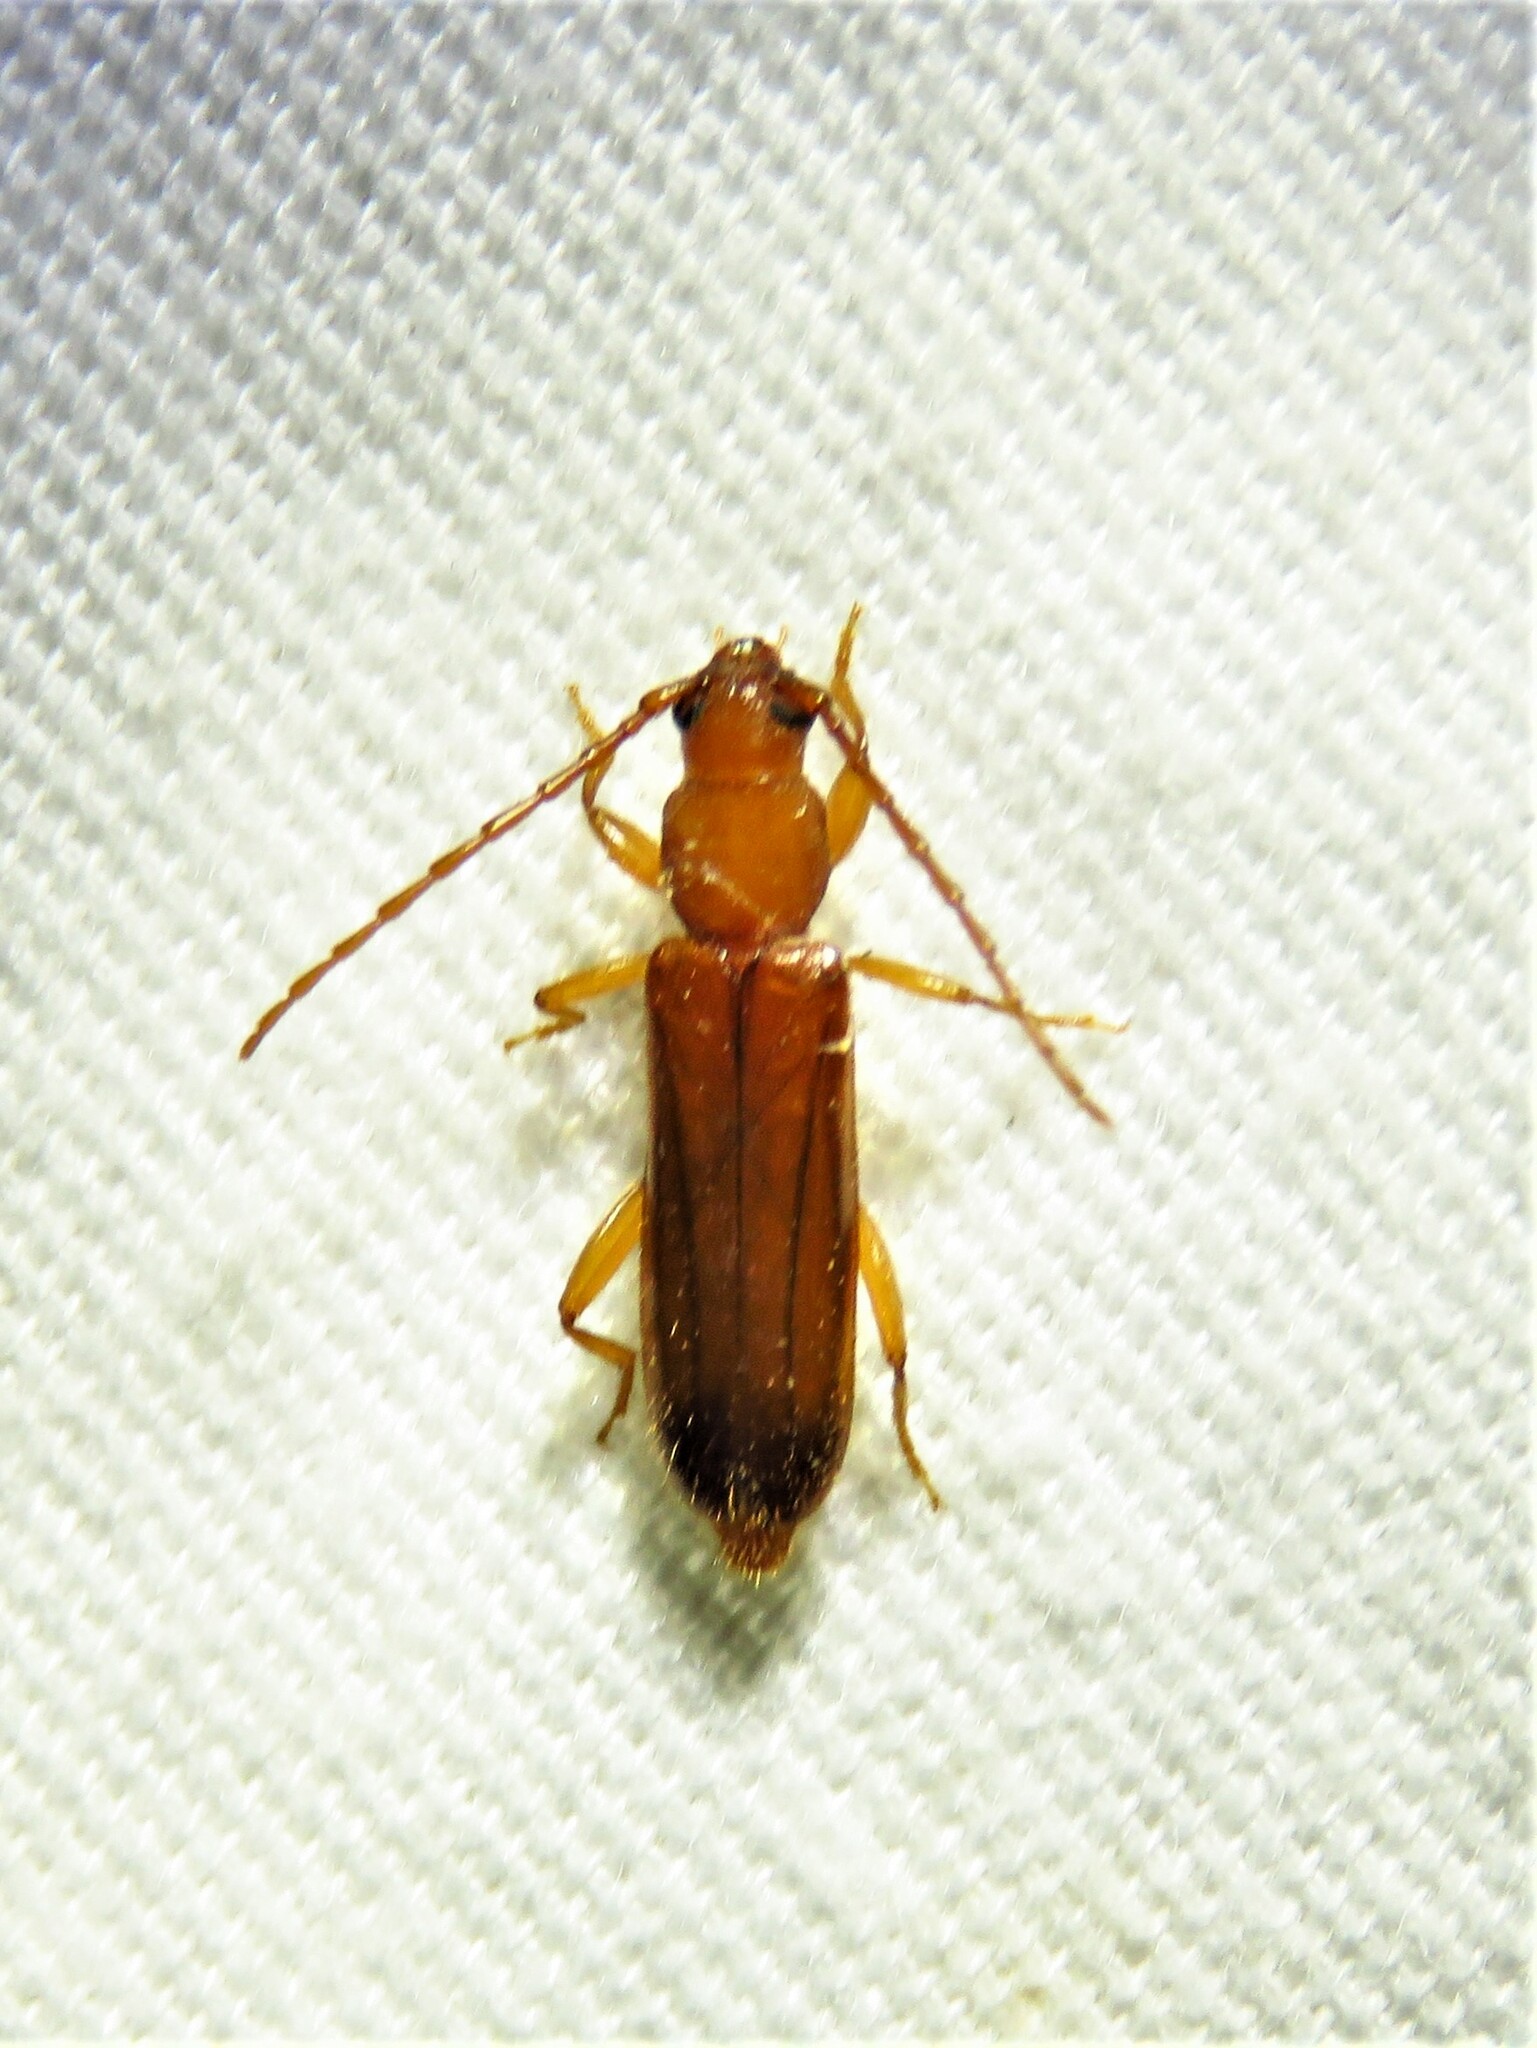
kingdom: Animalia
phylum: Arthropoda
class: Insecta
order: Coleoptera
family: Cerambycidae
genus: Smodicum
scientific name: Smodicum cucujiforme
